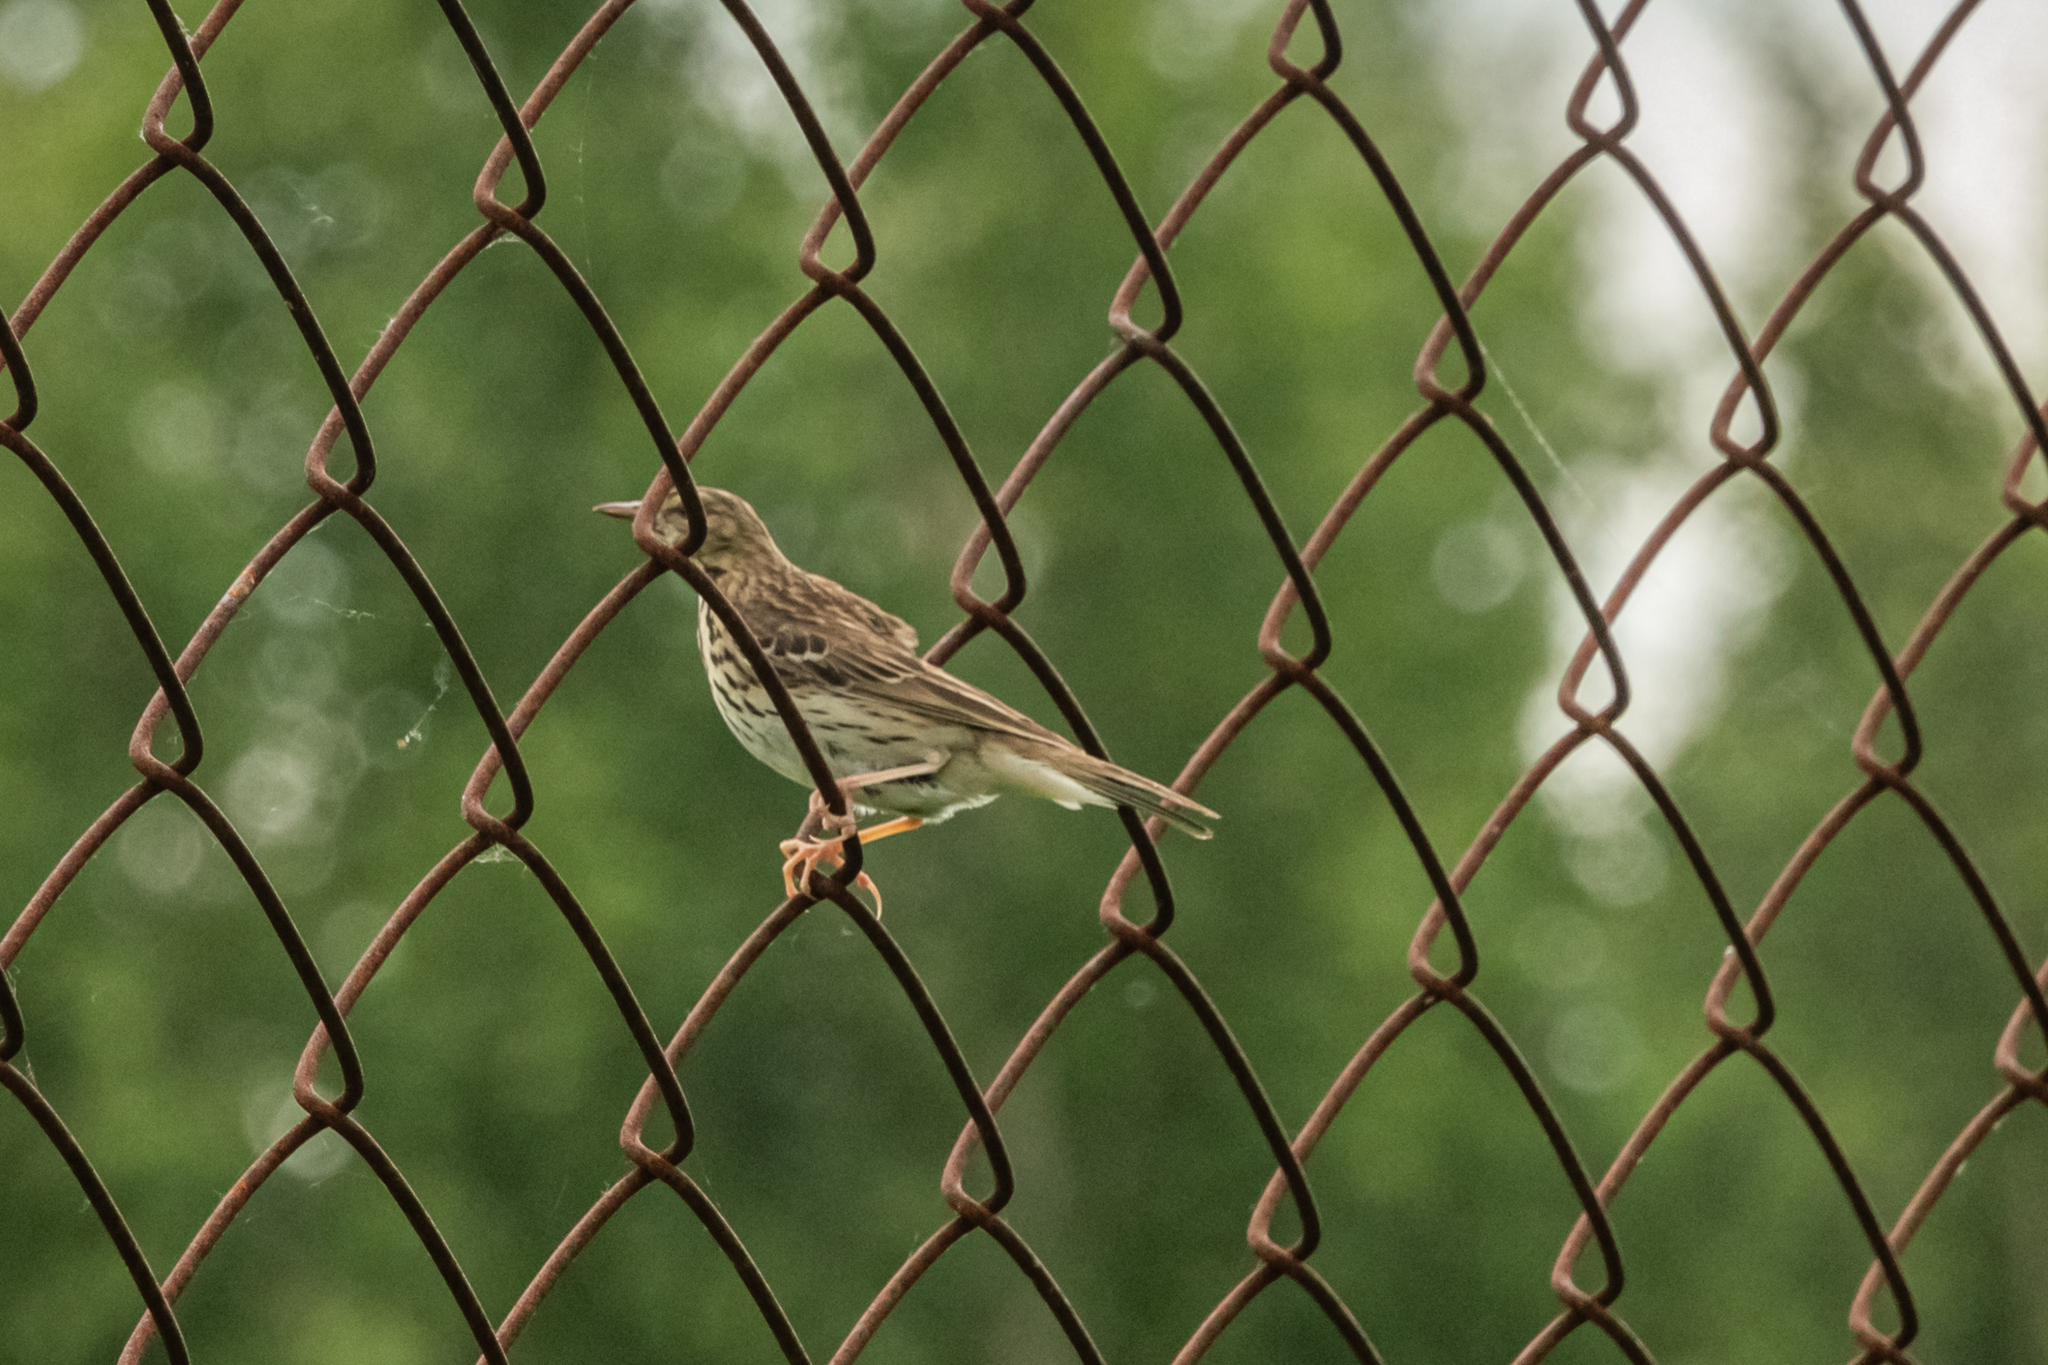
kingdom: Animalia
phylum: Chordata
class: Aves
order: Passeriformes
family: Motacillidae
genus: Anthus
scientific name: Anthus trivialis
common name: Tree pipit
